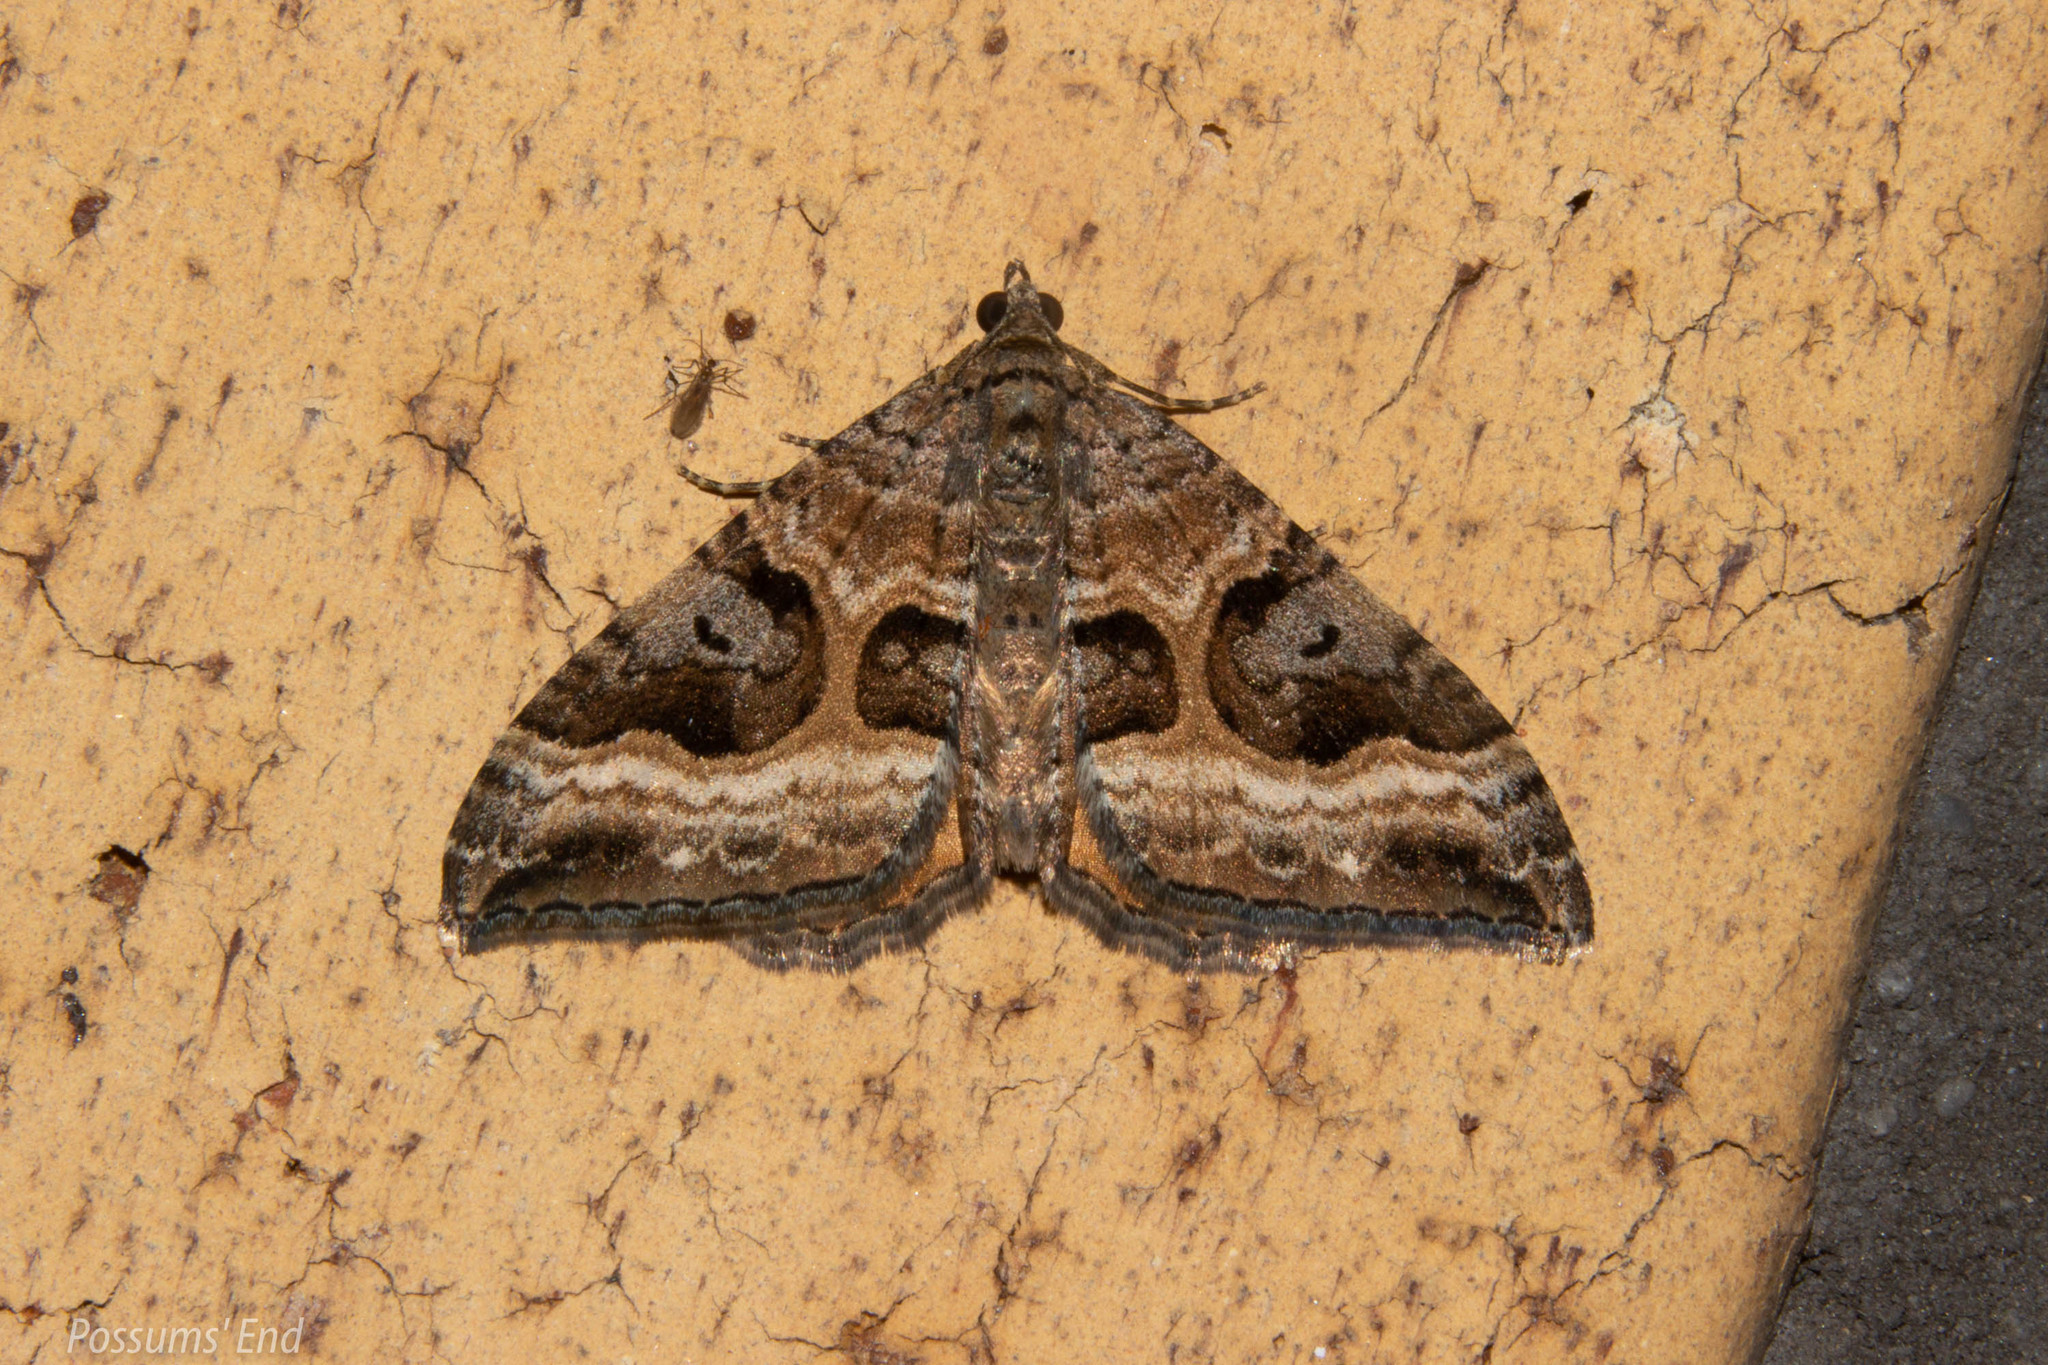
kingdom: Animalia
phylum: Arthropoda
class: Insecta
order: Lepidoptera
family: Geometridae
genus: Hydriomena
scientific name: Hydriomena deltoidata
